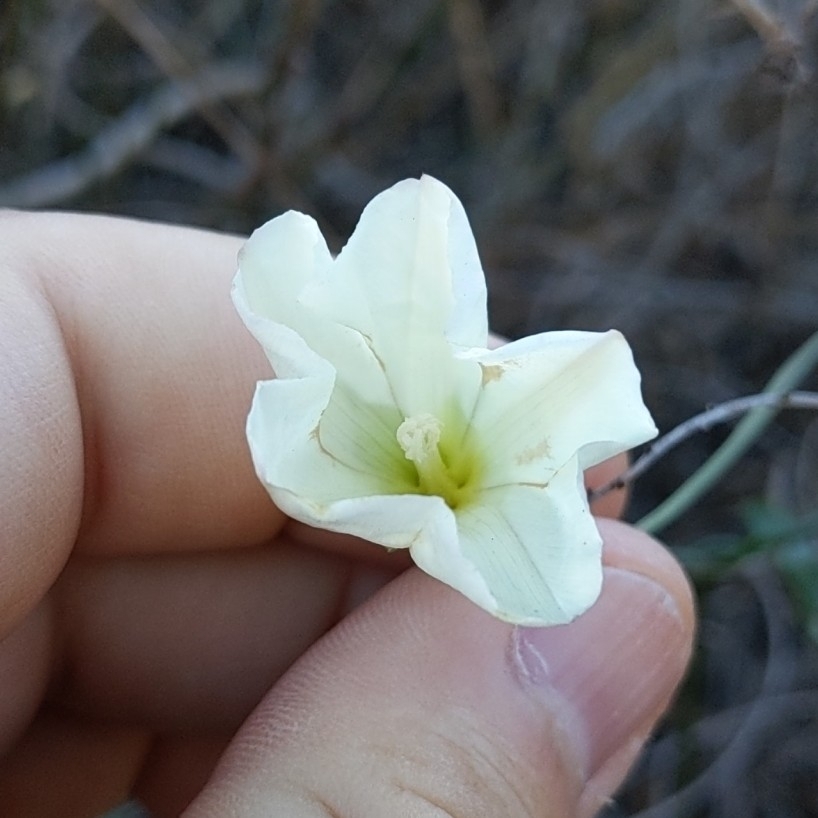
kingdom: Plantae
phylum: Tracheophyta
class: Magnoliopsida
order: Solanales
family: Convolvulaceae
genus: Calystegia
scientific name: Calystegia macrostegia
